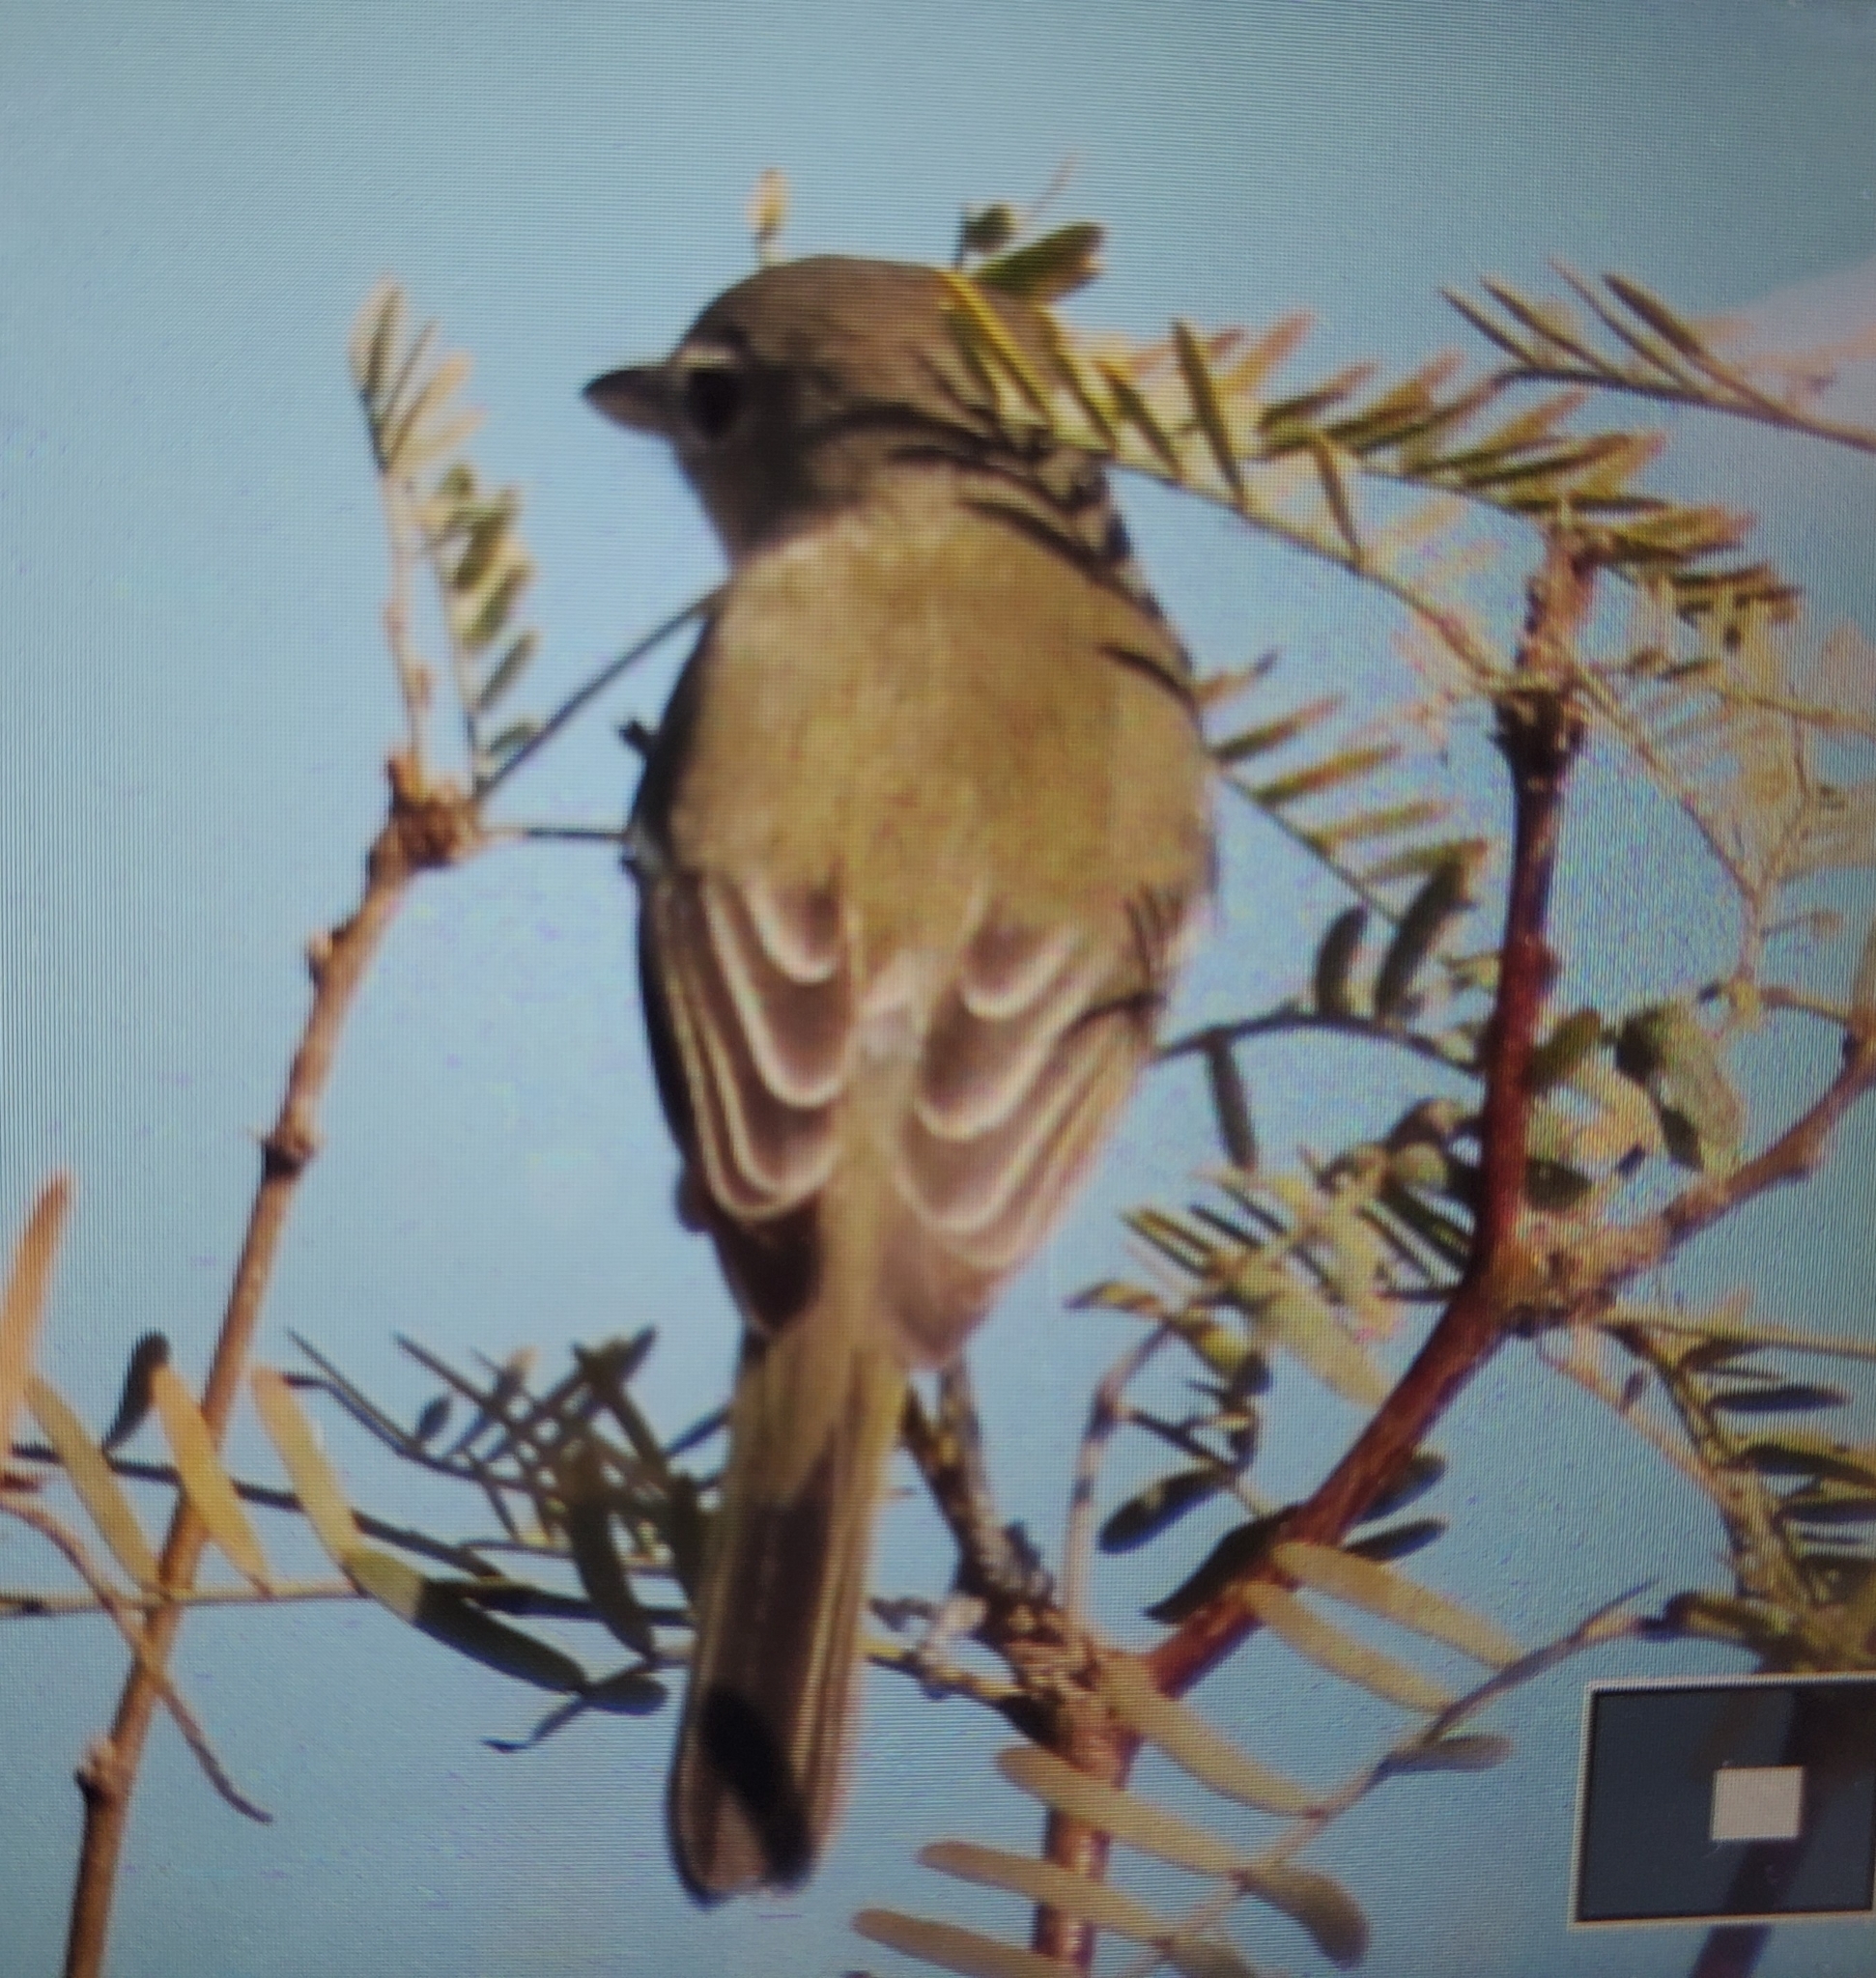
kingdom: Animalia
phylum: Chordata
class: Aves
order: Passeriformes
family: Vireonidae
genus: Vireo
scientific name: Vireo bellii
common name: Bell's vireo
